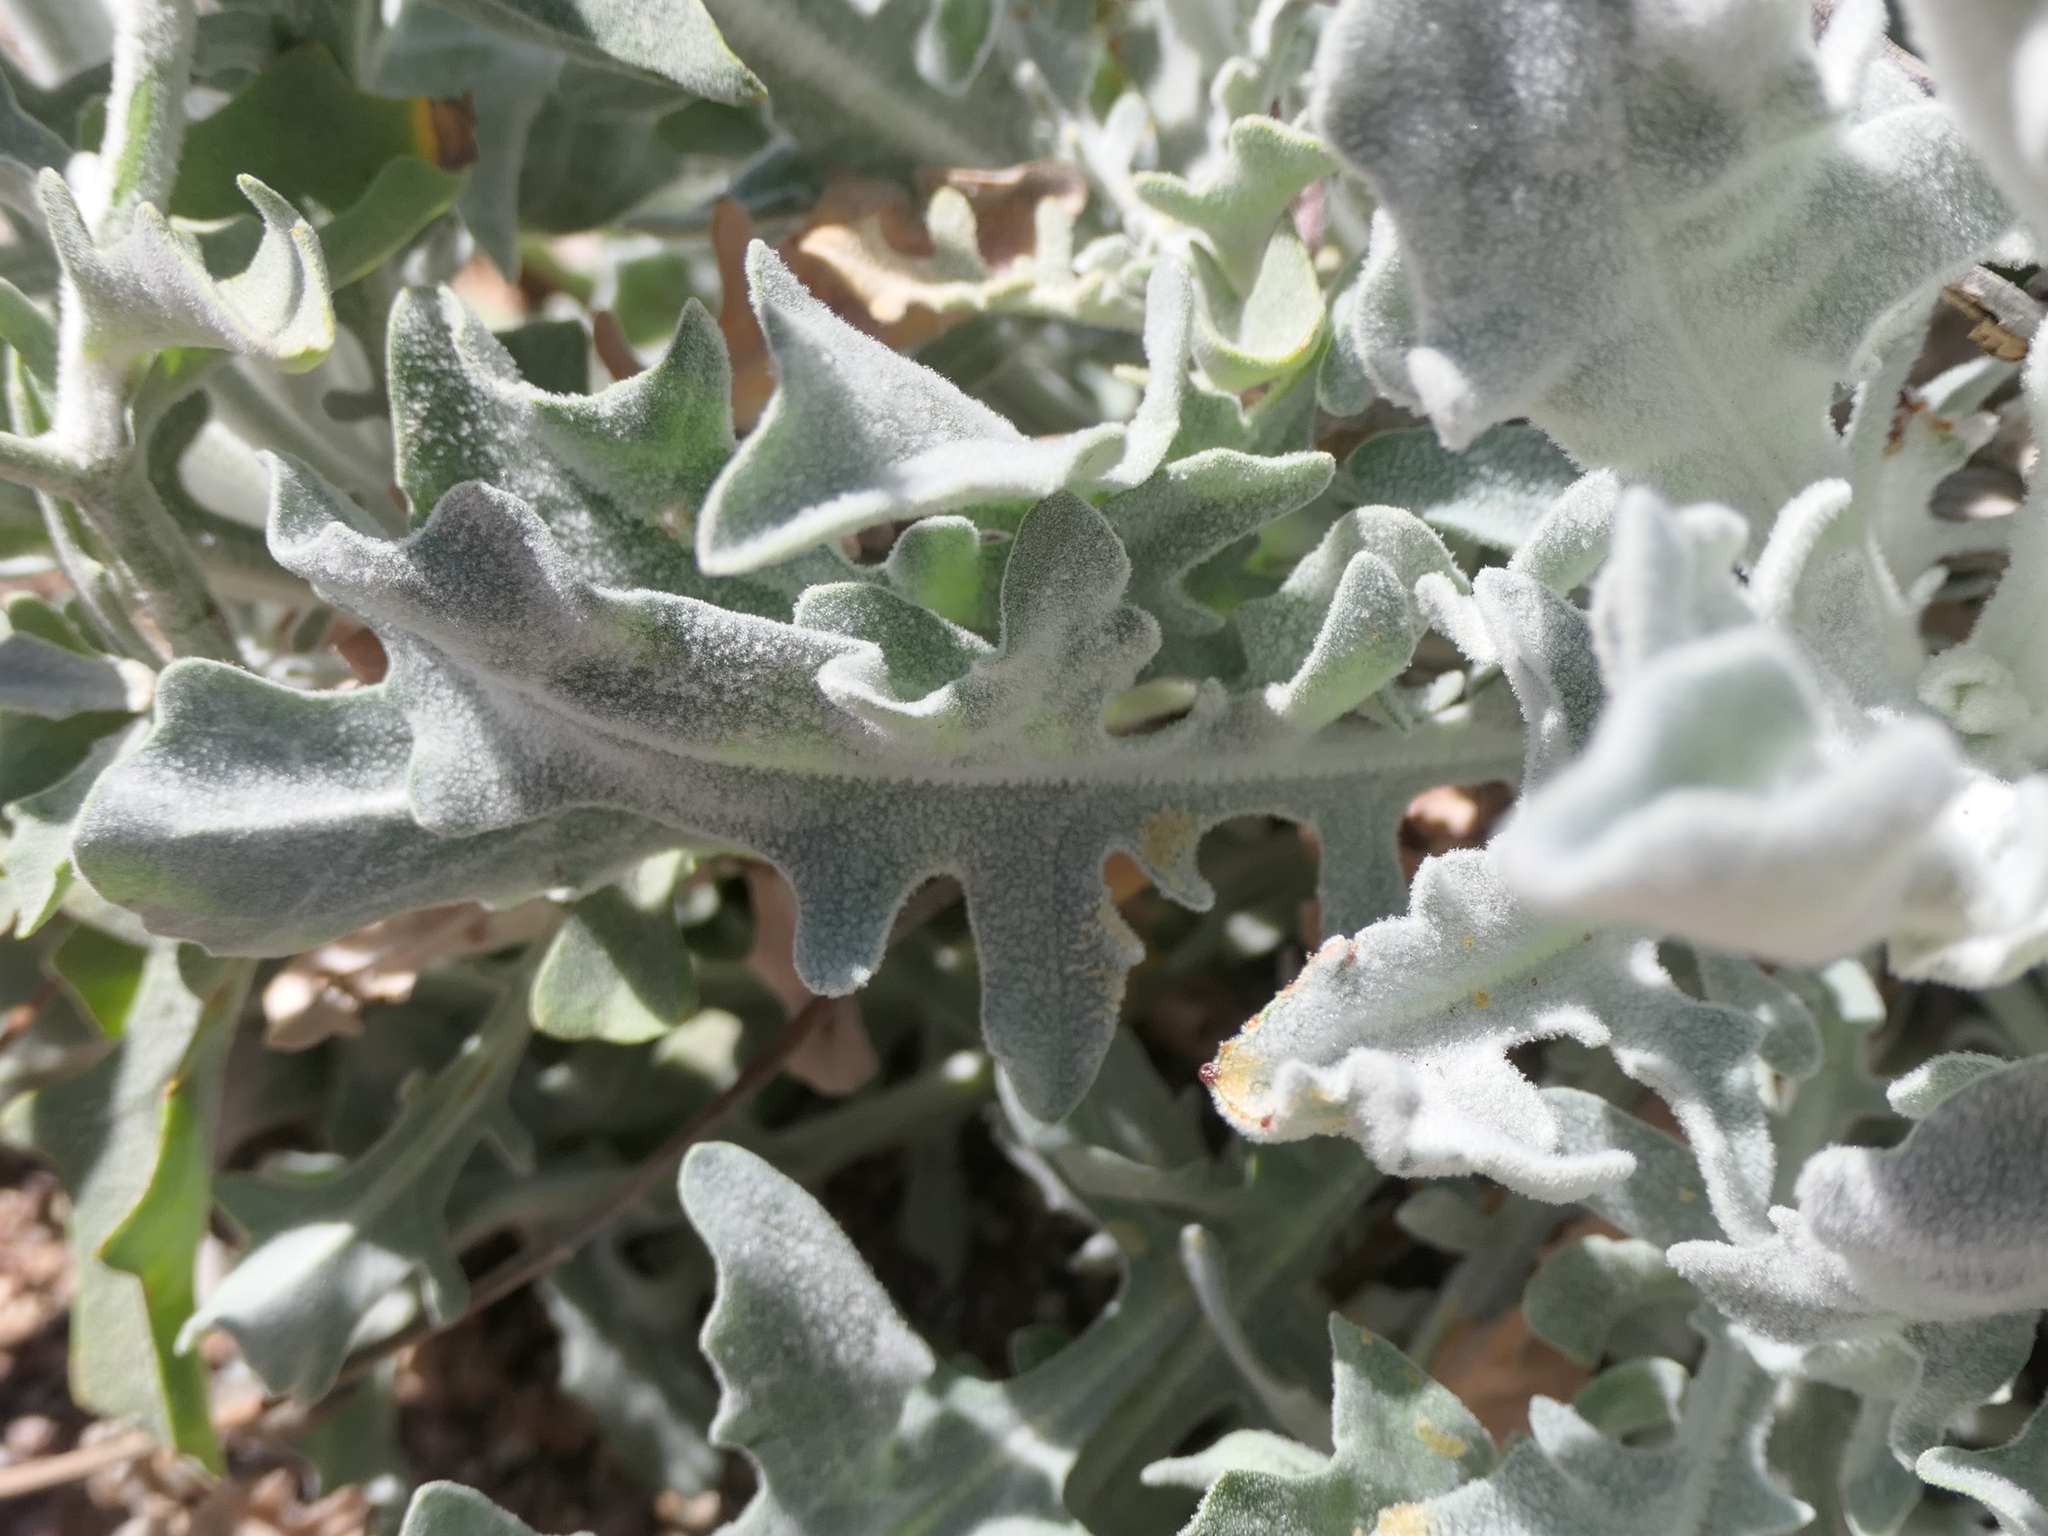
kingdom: Plantae
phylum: Tracheophyta
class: Magnoliopsida
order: Asterales
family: Asteraceae
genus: Andryala
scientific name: Andryala ragusina
